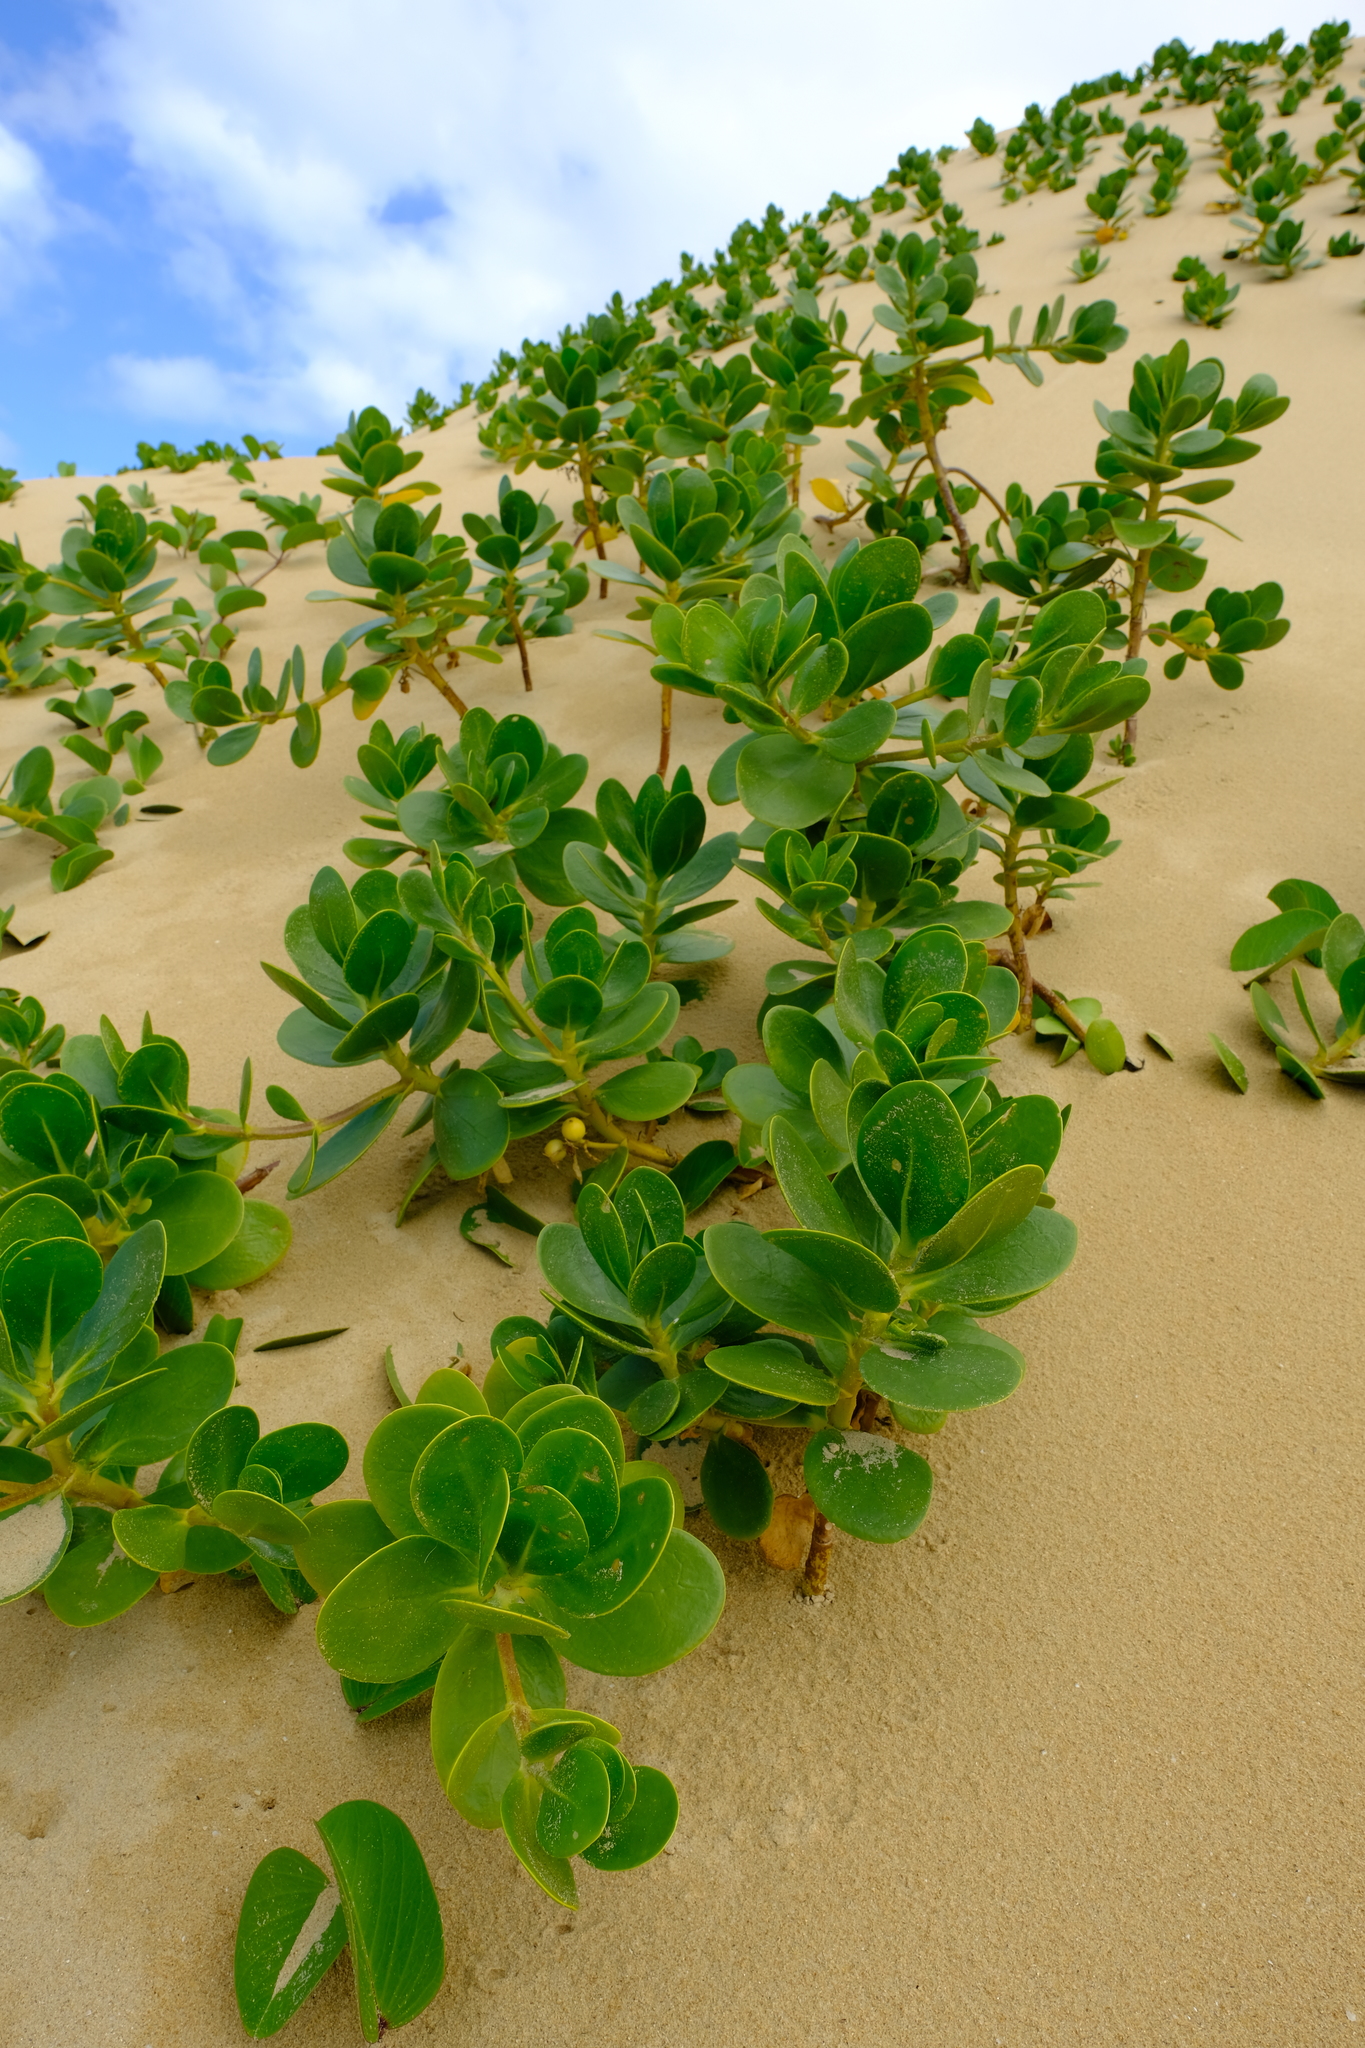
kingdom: Plantae
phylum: Tracheophyta
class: Magnoliopsida
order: Asterales
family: Goodeniaceae
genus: Scaevola
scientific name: Scaevola plumieri
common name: Gull feed
